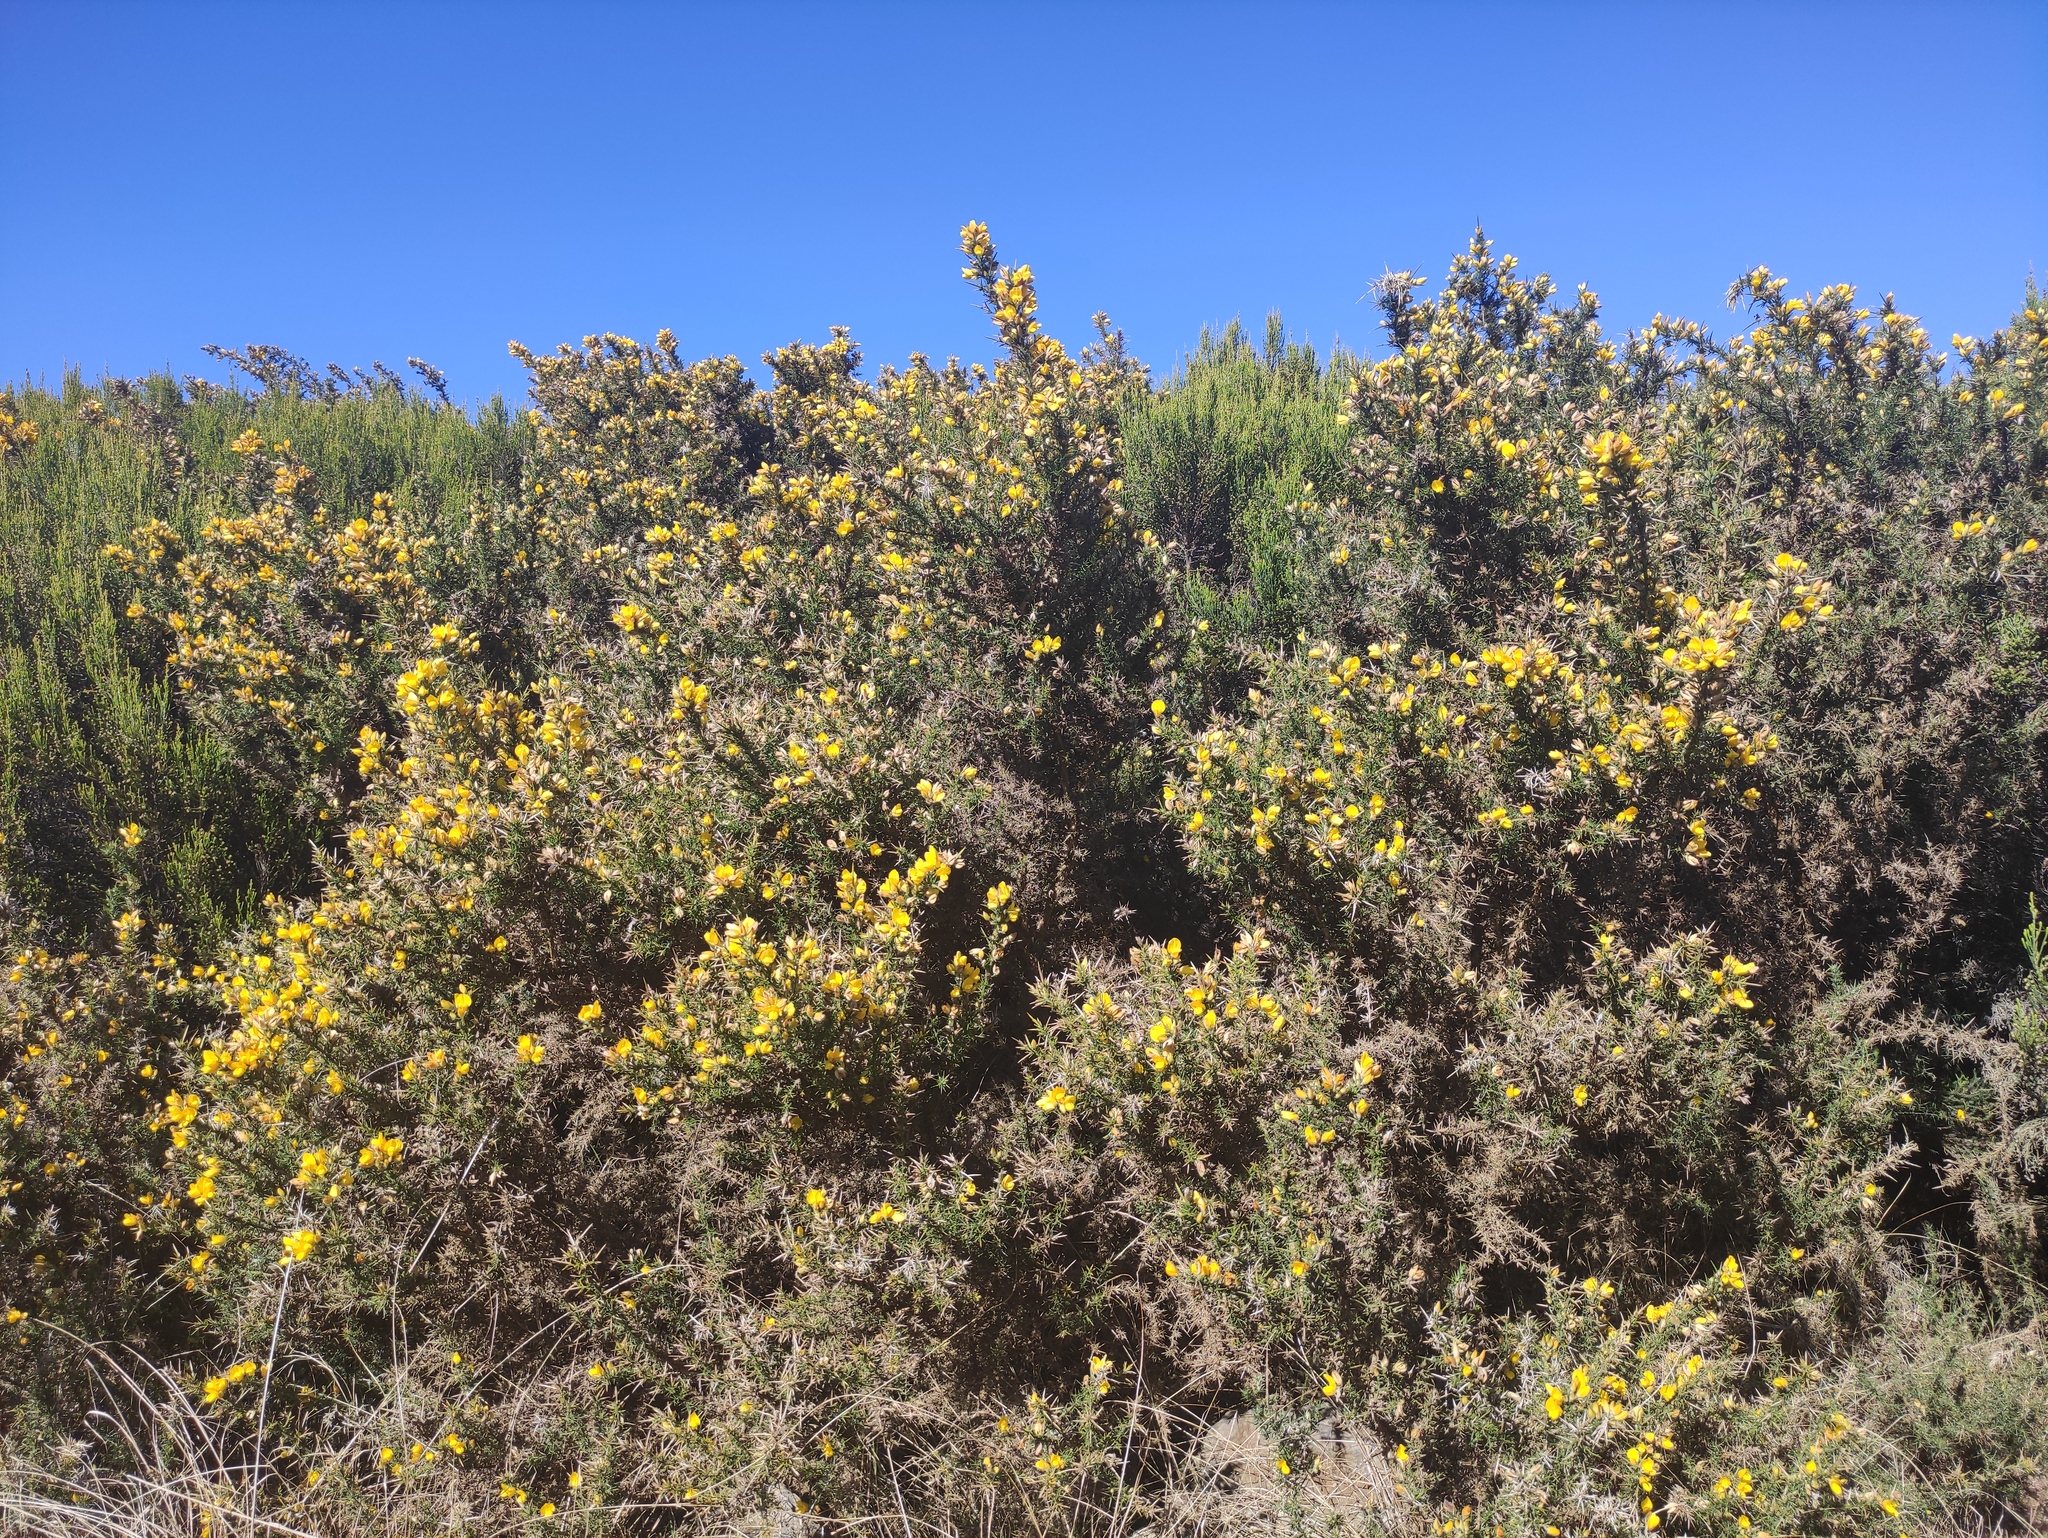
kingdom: Plantae
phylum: Tracheophyta
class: Magnoliopsida
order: Fabales
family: Fabaceae
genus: Ulex
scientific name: Ulex europaeus
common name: Common gorse
